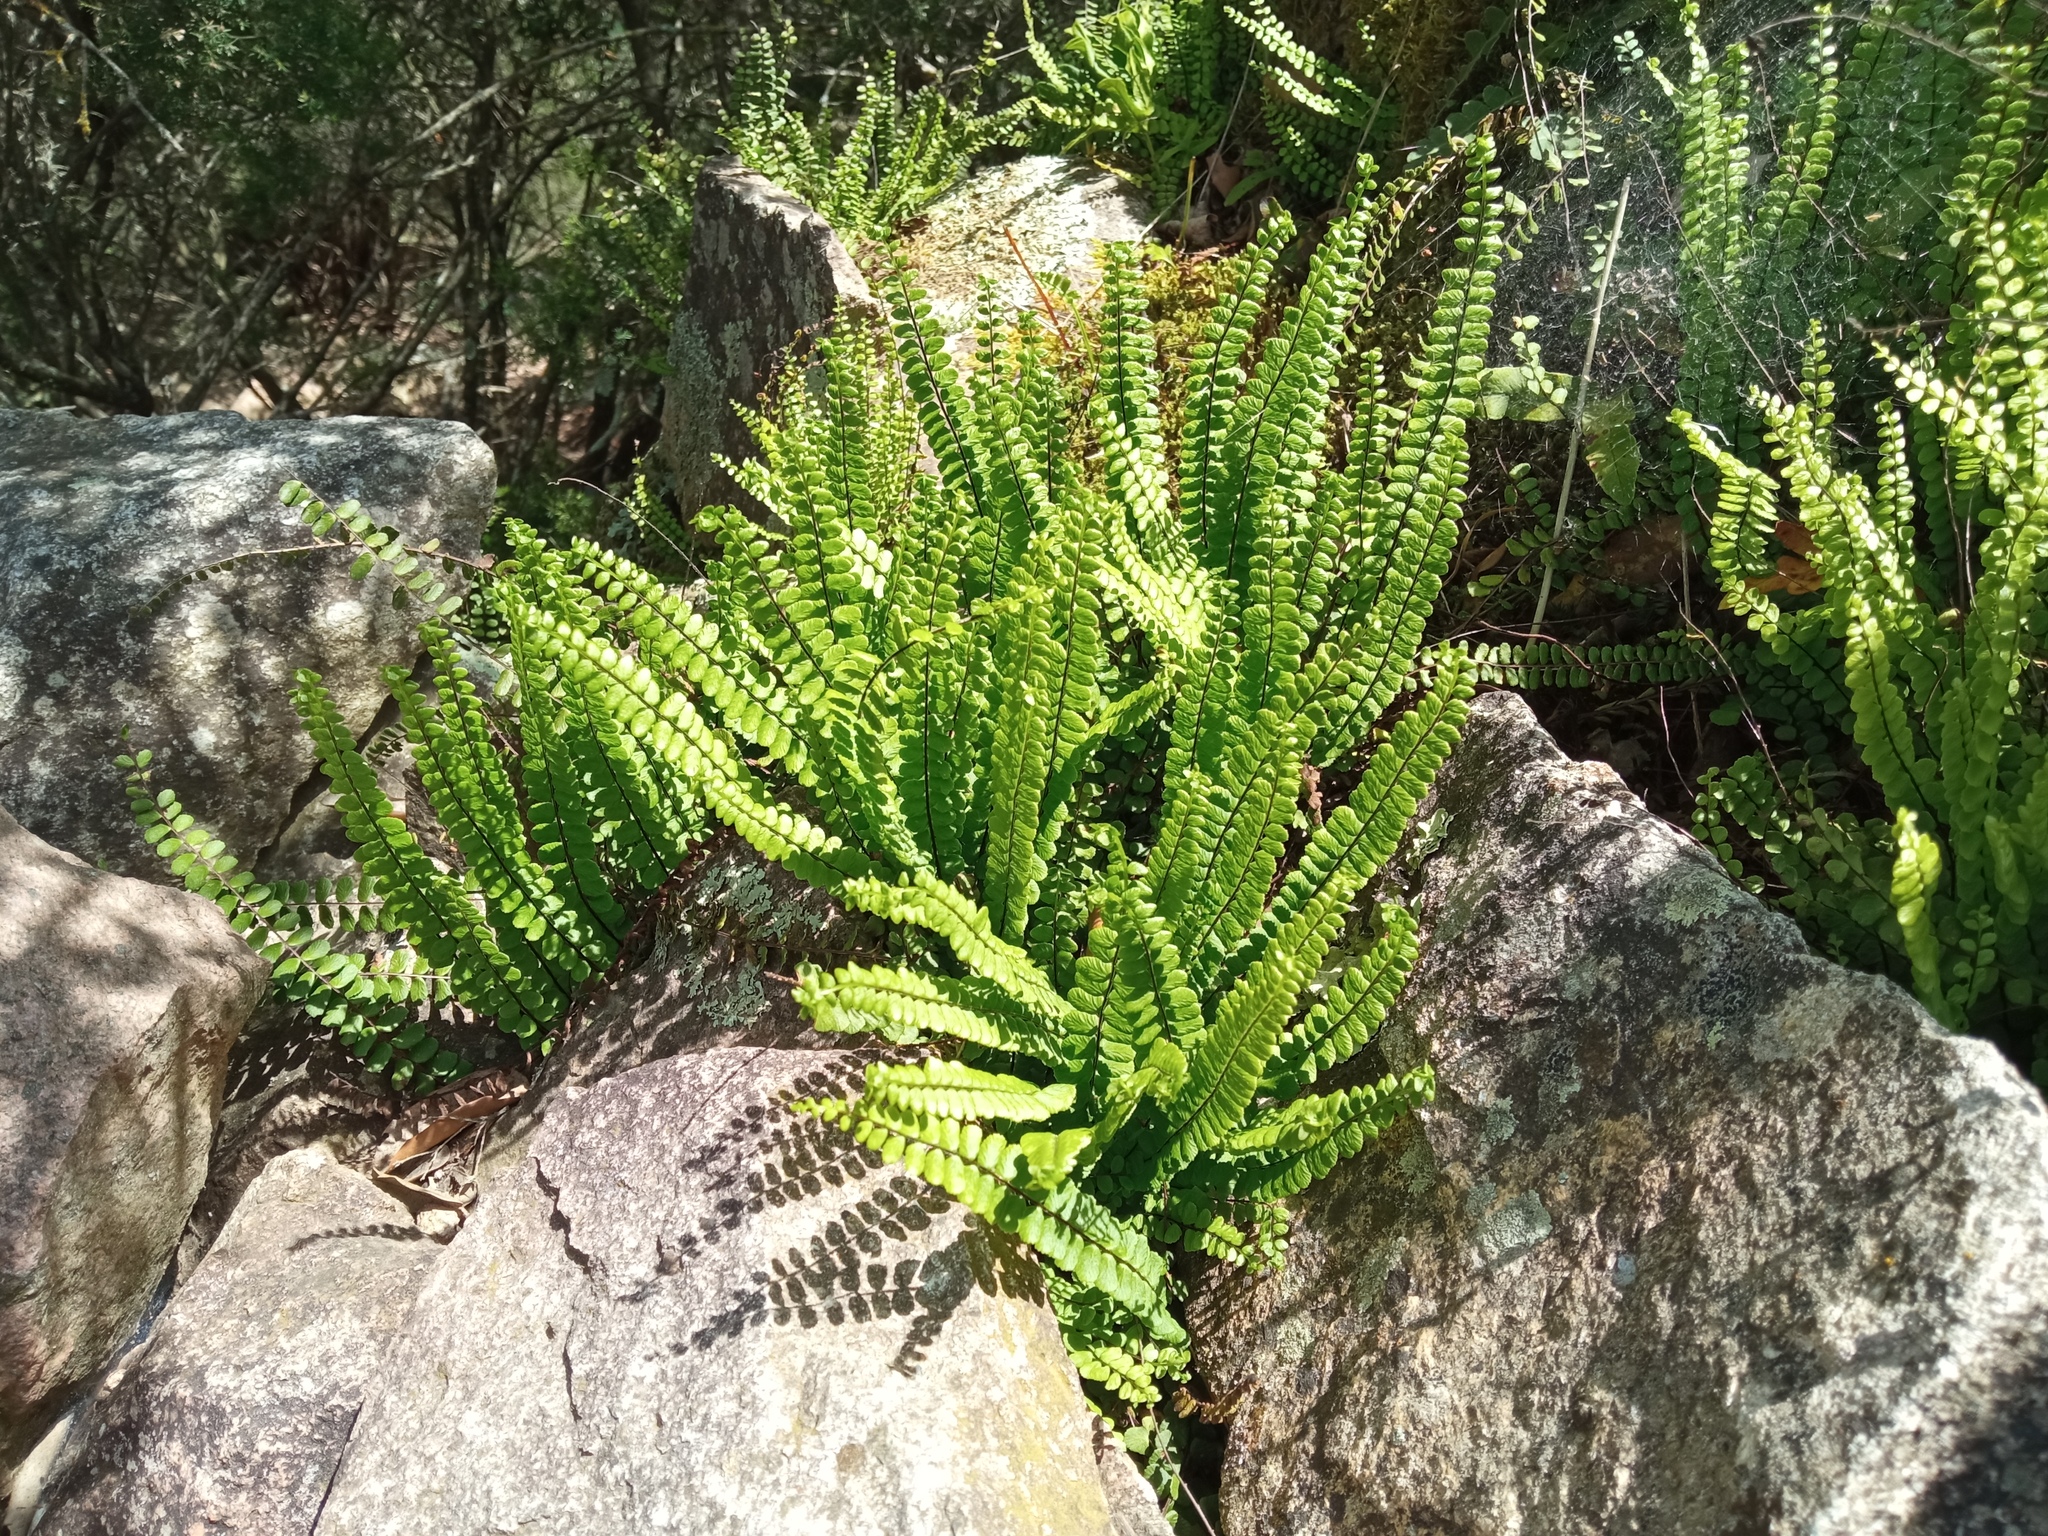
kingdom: Plantae
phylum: Tracheophyta
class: Polypodiopsida
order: Polypodiales
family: Aspleniaceae
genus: Asplenium
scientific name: Asplenium trichomanes
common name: Maidenhair spleenwort
